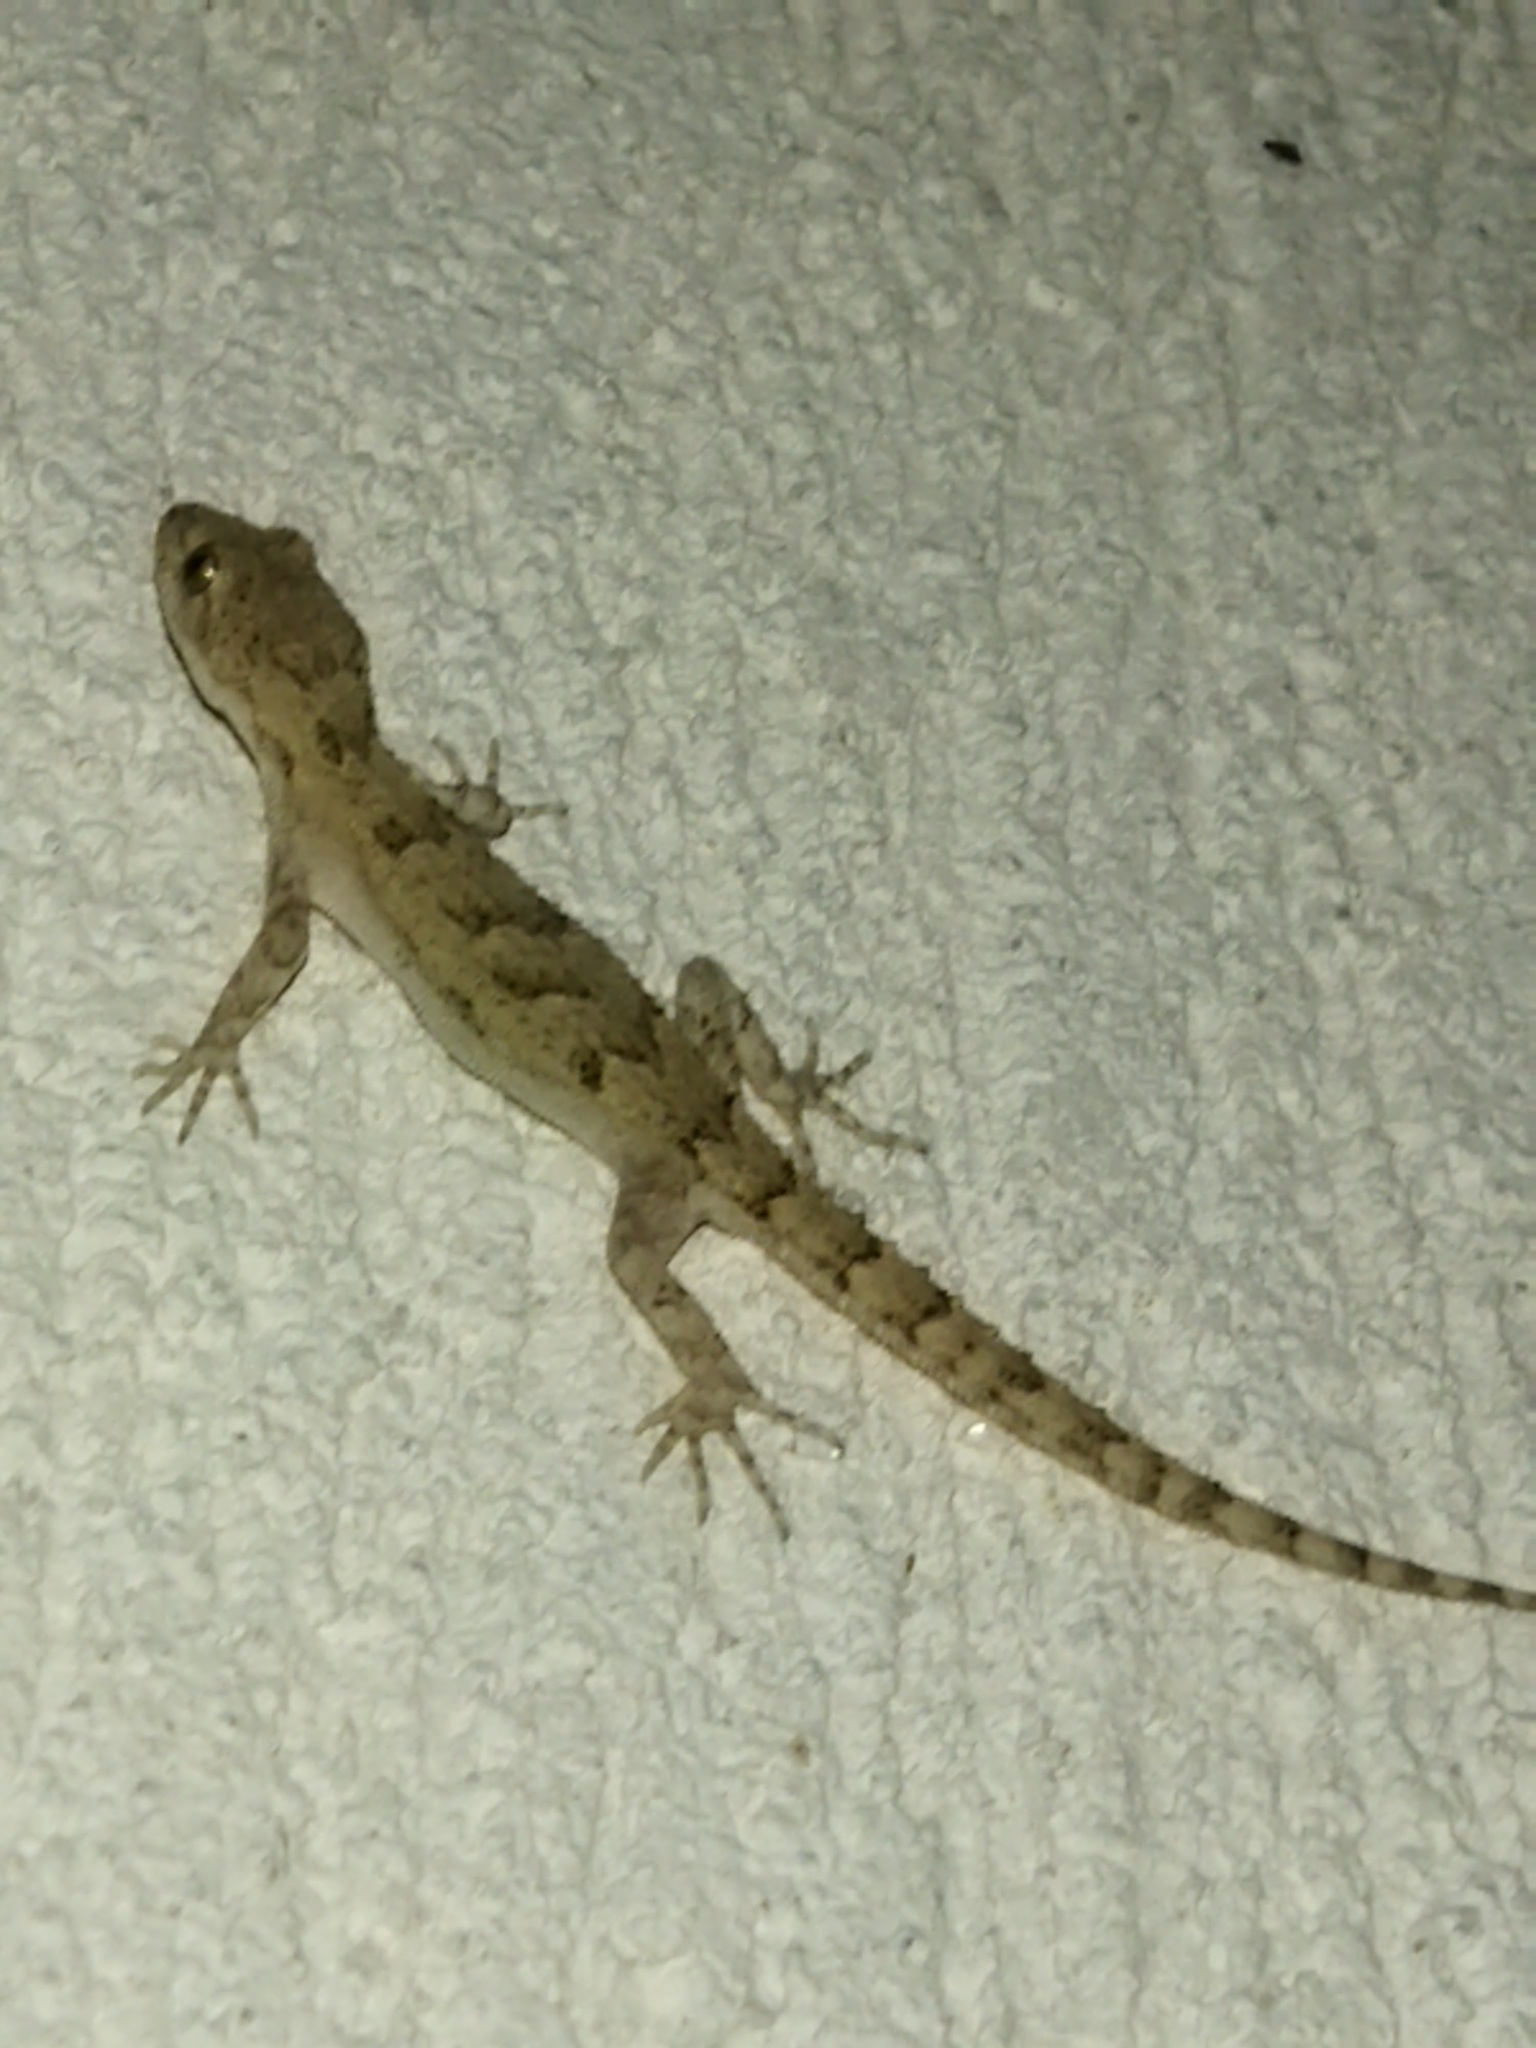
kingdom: Animalia
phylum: Chordata
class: Squamata
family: Gekkonidae
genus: Mediodactylus
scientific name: Mediodactylus kotschyi
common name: Kotschy's gecko
